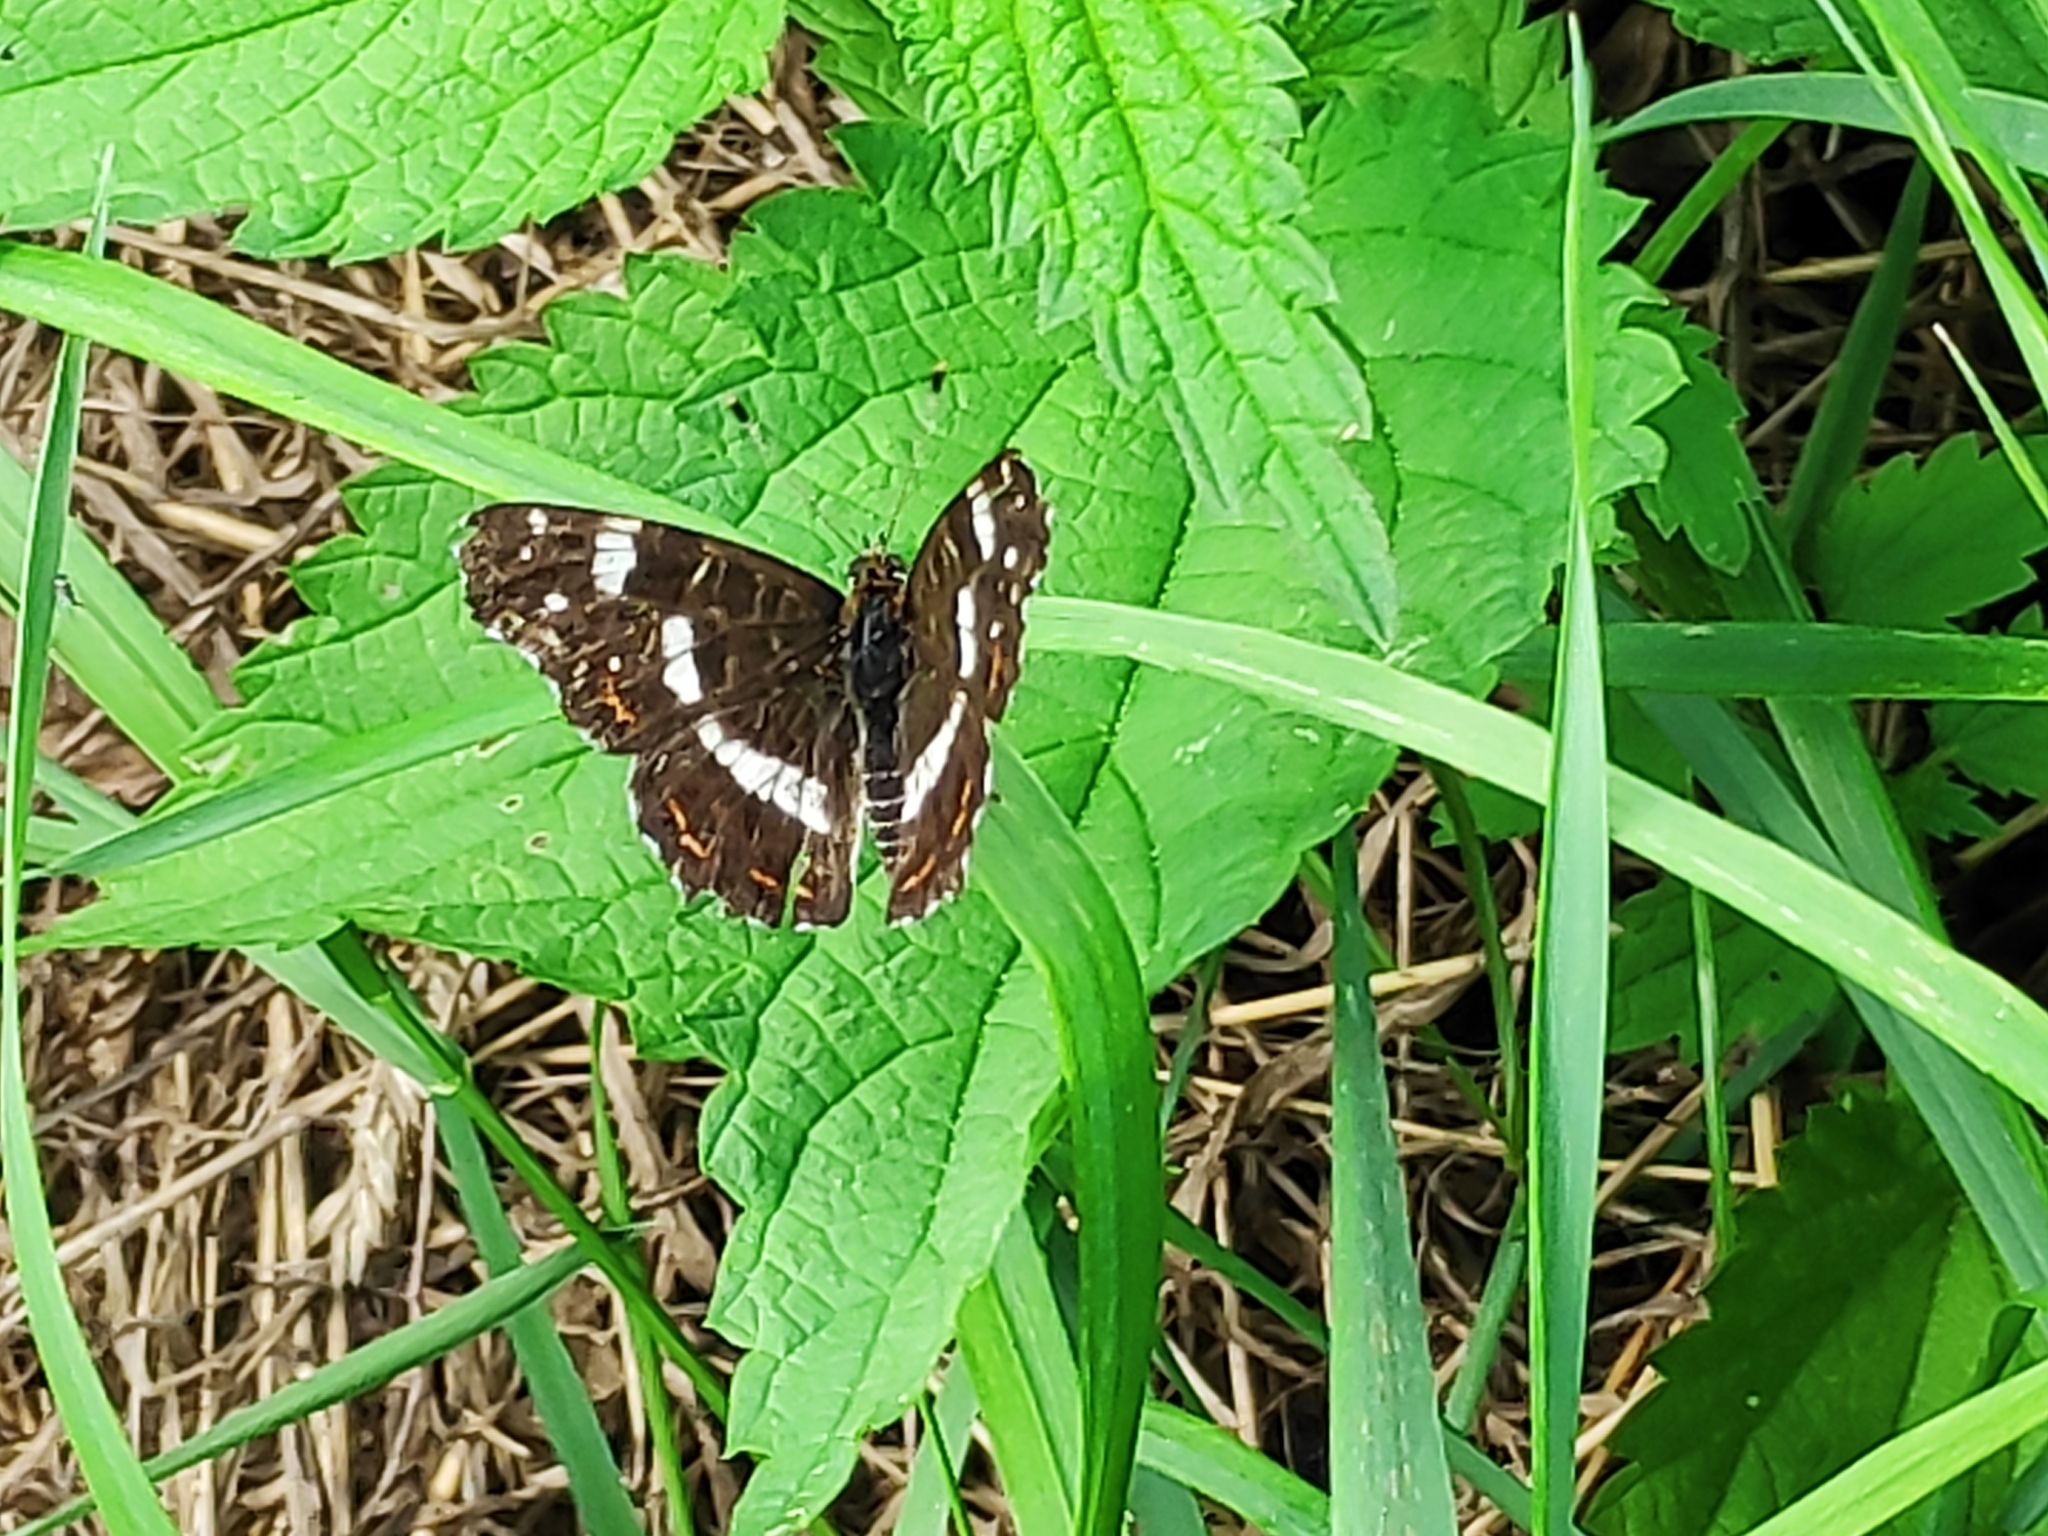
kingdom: Animalia
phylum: Arthropoda
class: Insecta
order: Lepidoptera
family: Nymphalidae
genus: Araschnia
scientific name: Araschnia levana
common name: Map butterfly
